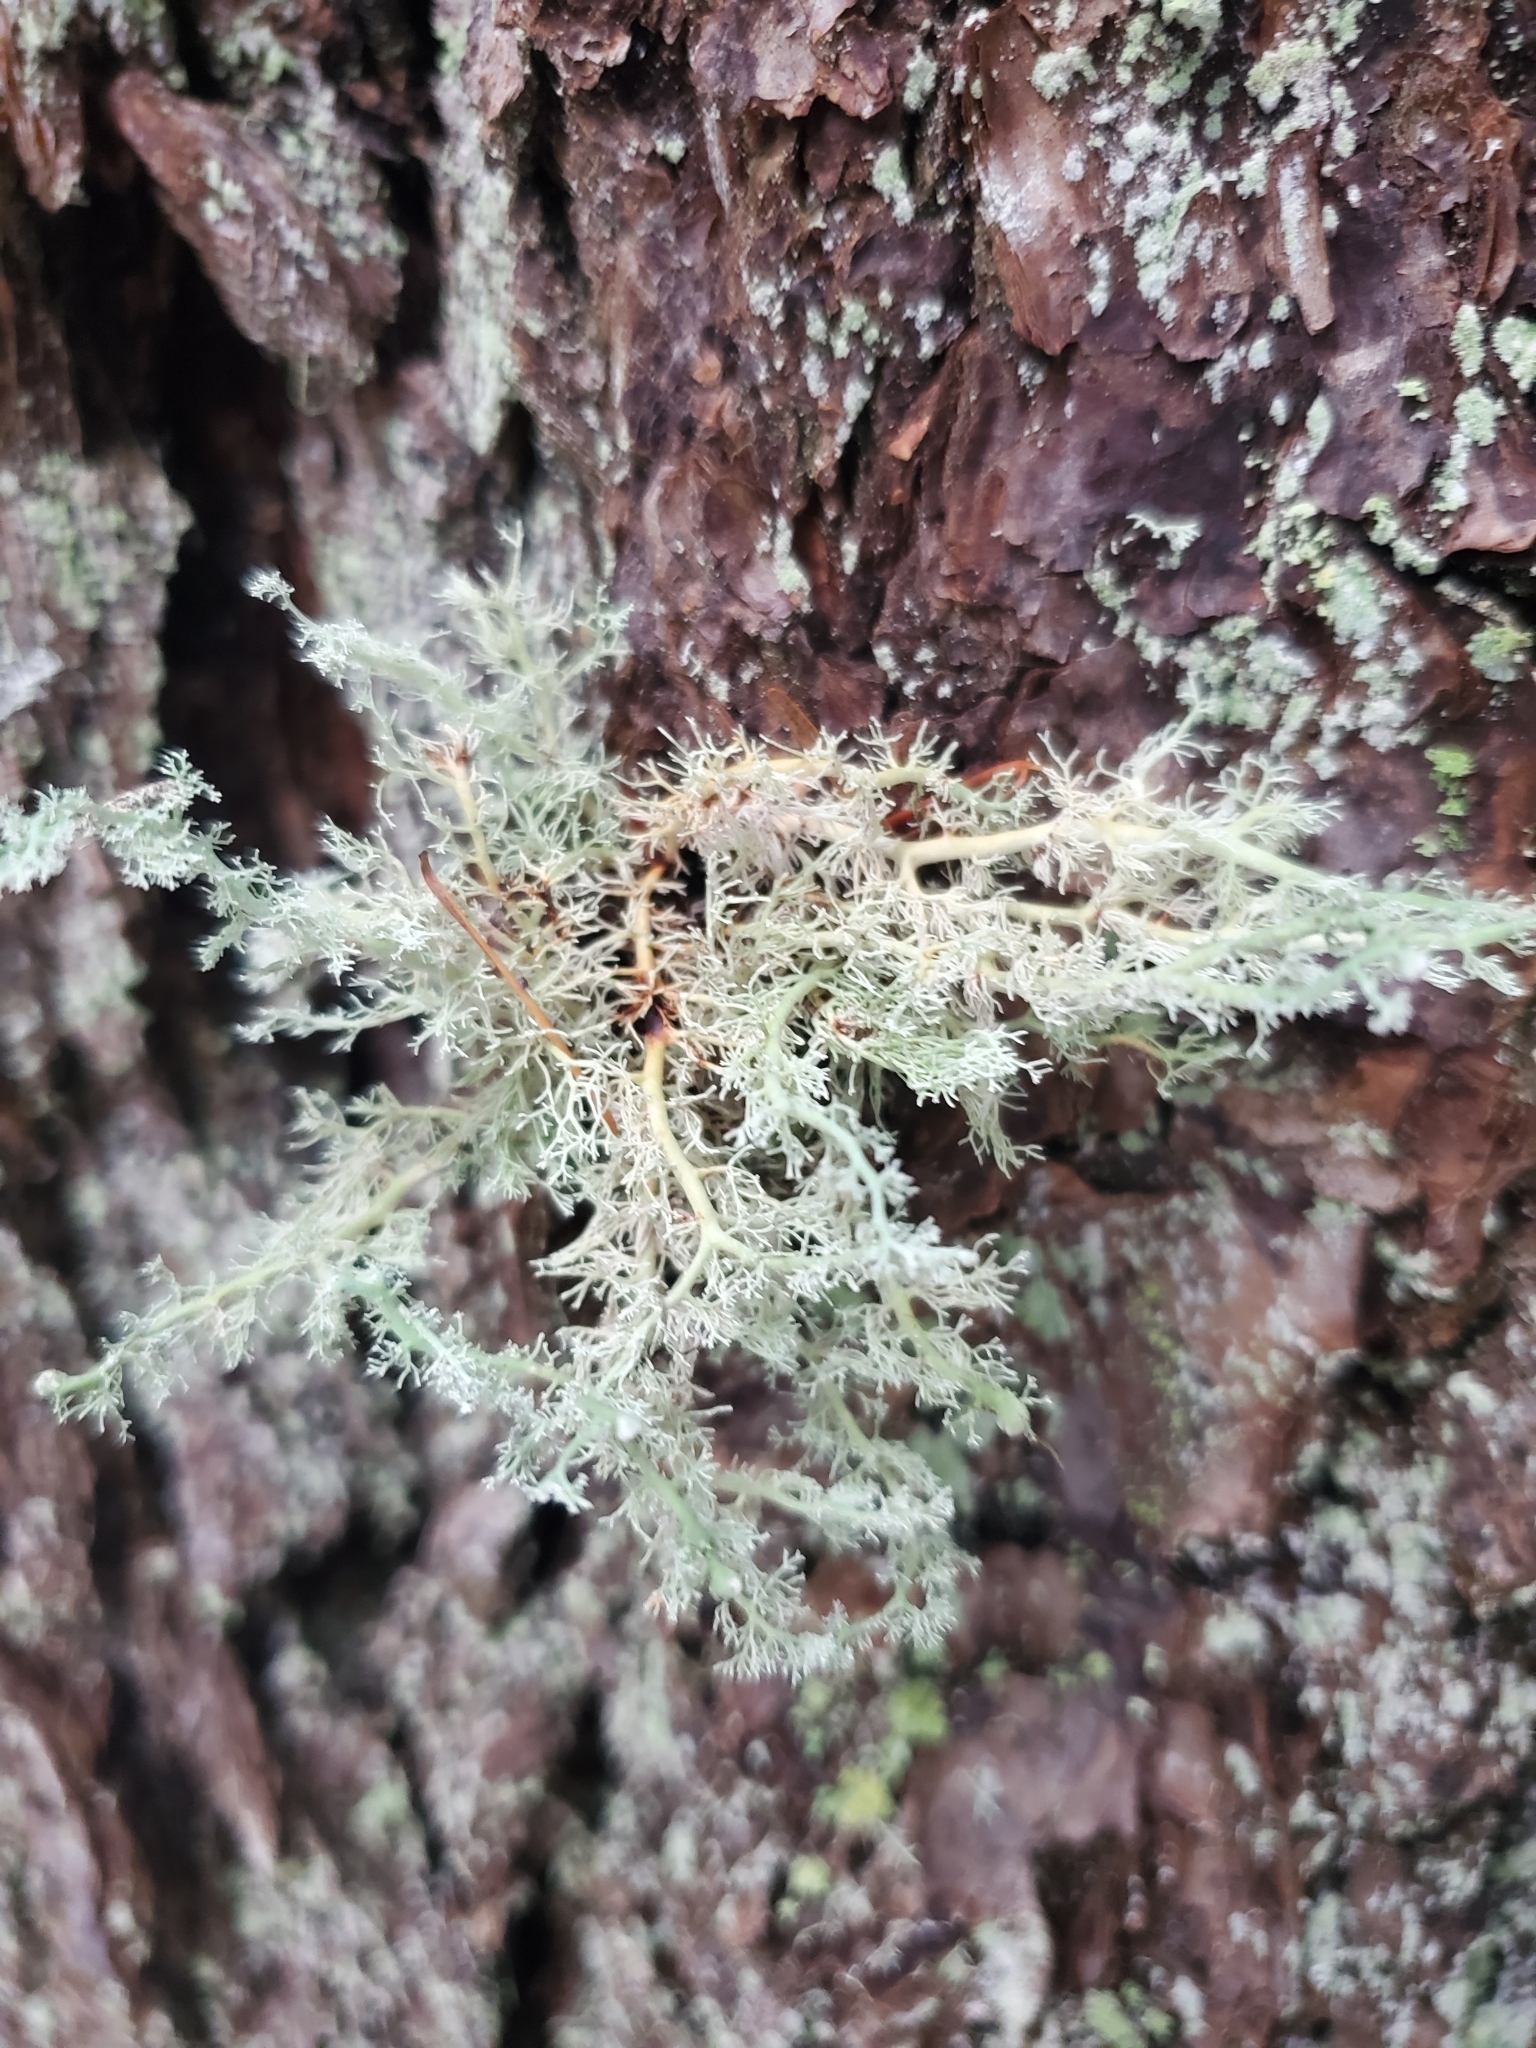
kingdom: Fungi
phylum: Ascomycota
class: Lecanoromycetes
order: Lecanorales
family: Sphaerophoraceae
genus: Sphaerophorus
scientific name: Sphaerophorus globosus
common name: Globe ball lichen
